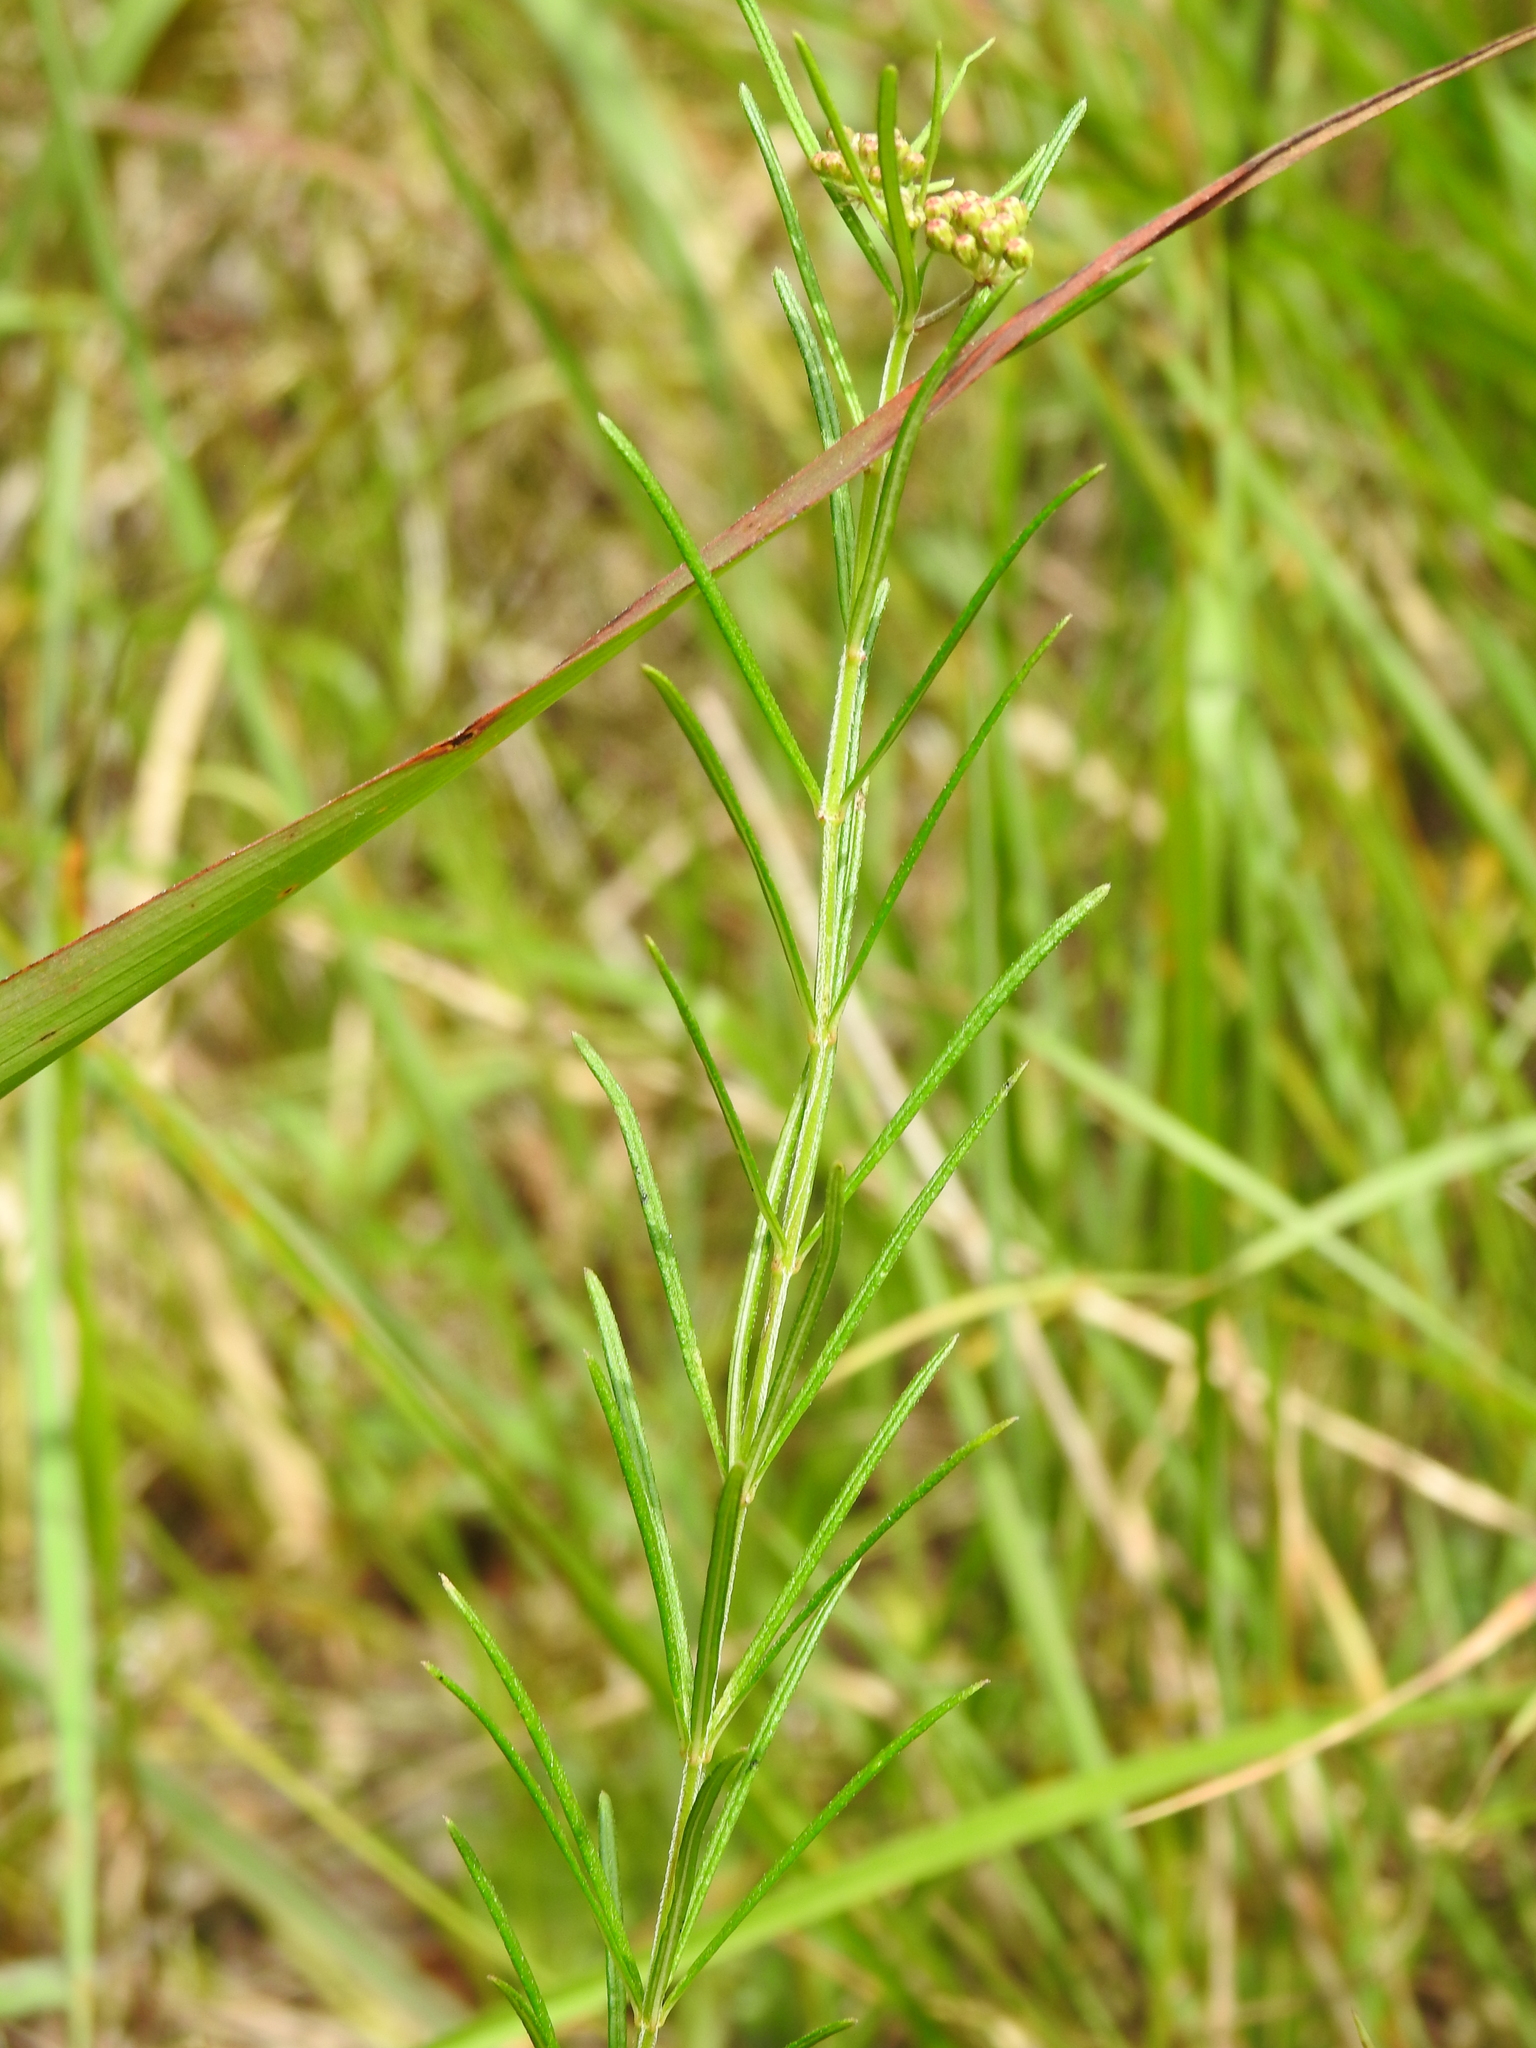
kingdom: Plantae
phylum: Tracheophyta
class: Magnoliopsida
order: Gentianales
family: Apocynaceae
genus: Asclepias
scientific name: Asclepias verticillata
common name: Eastern whorled milkweed
